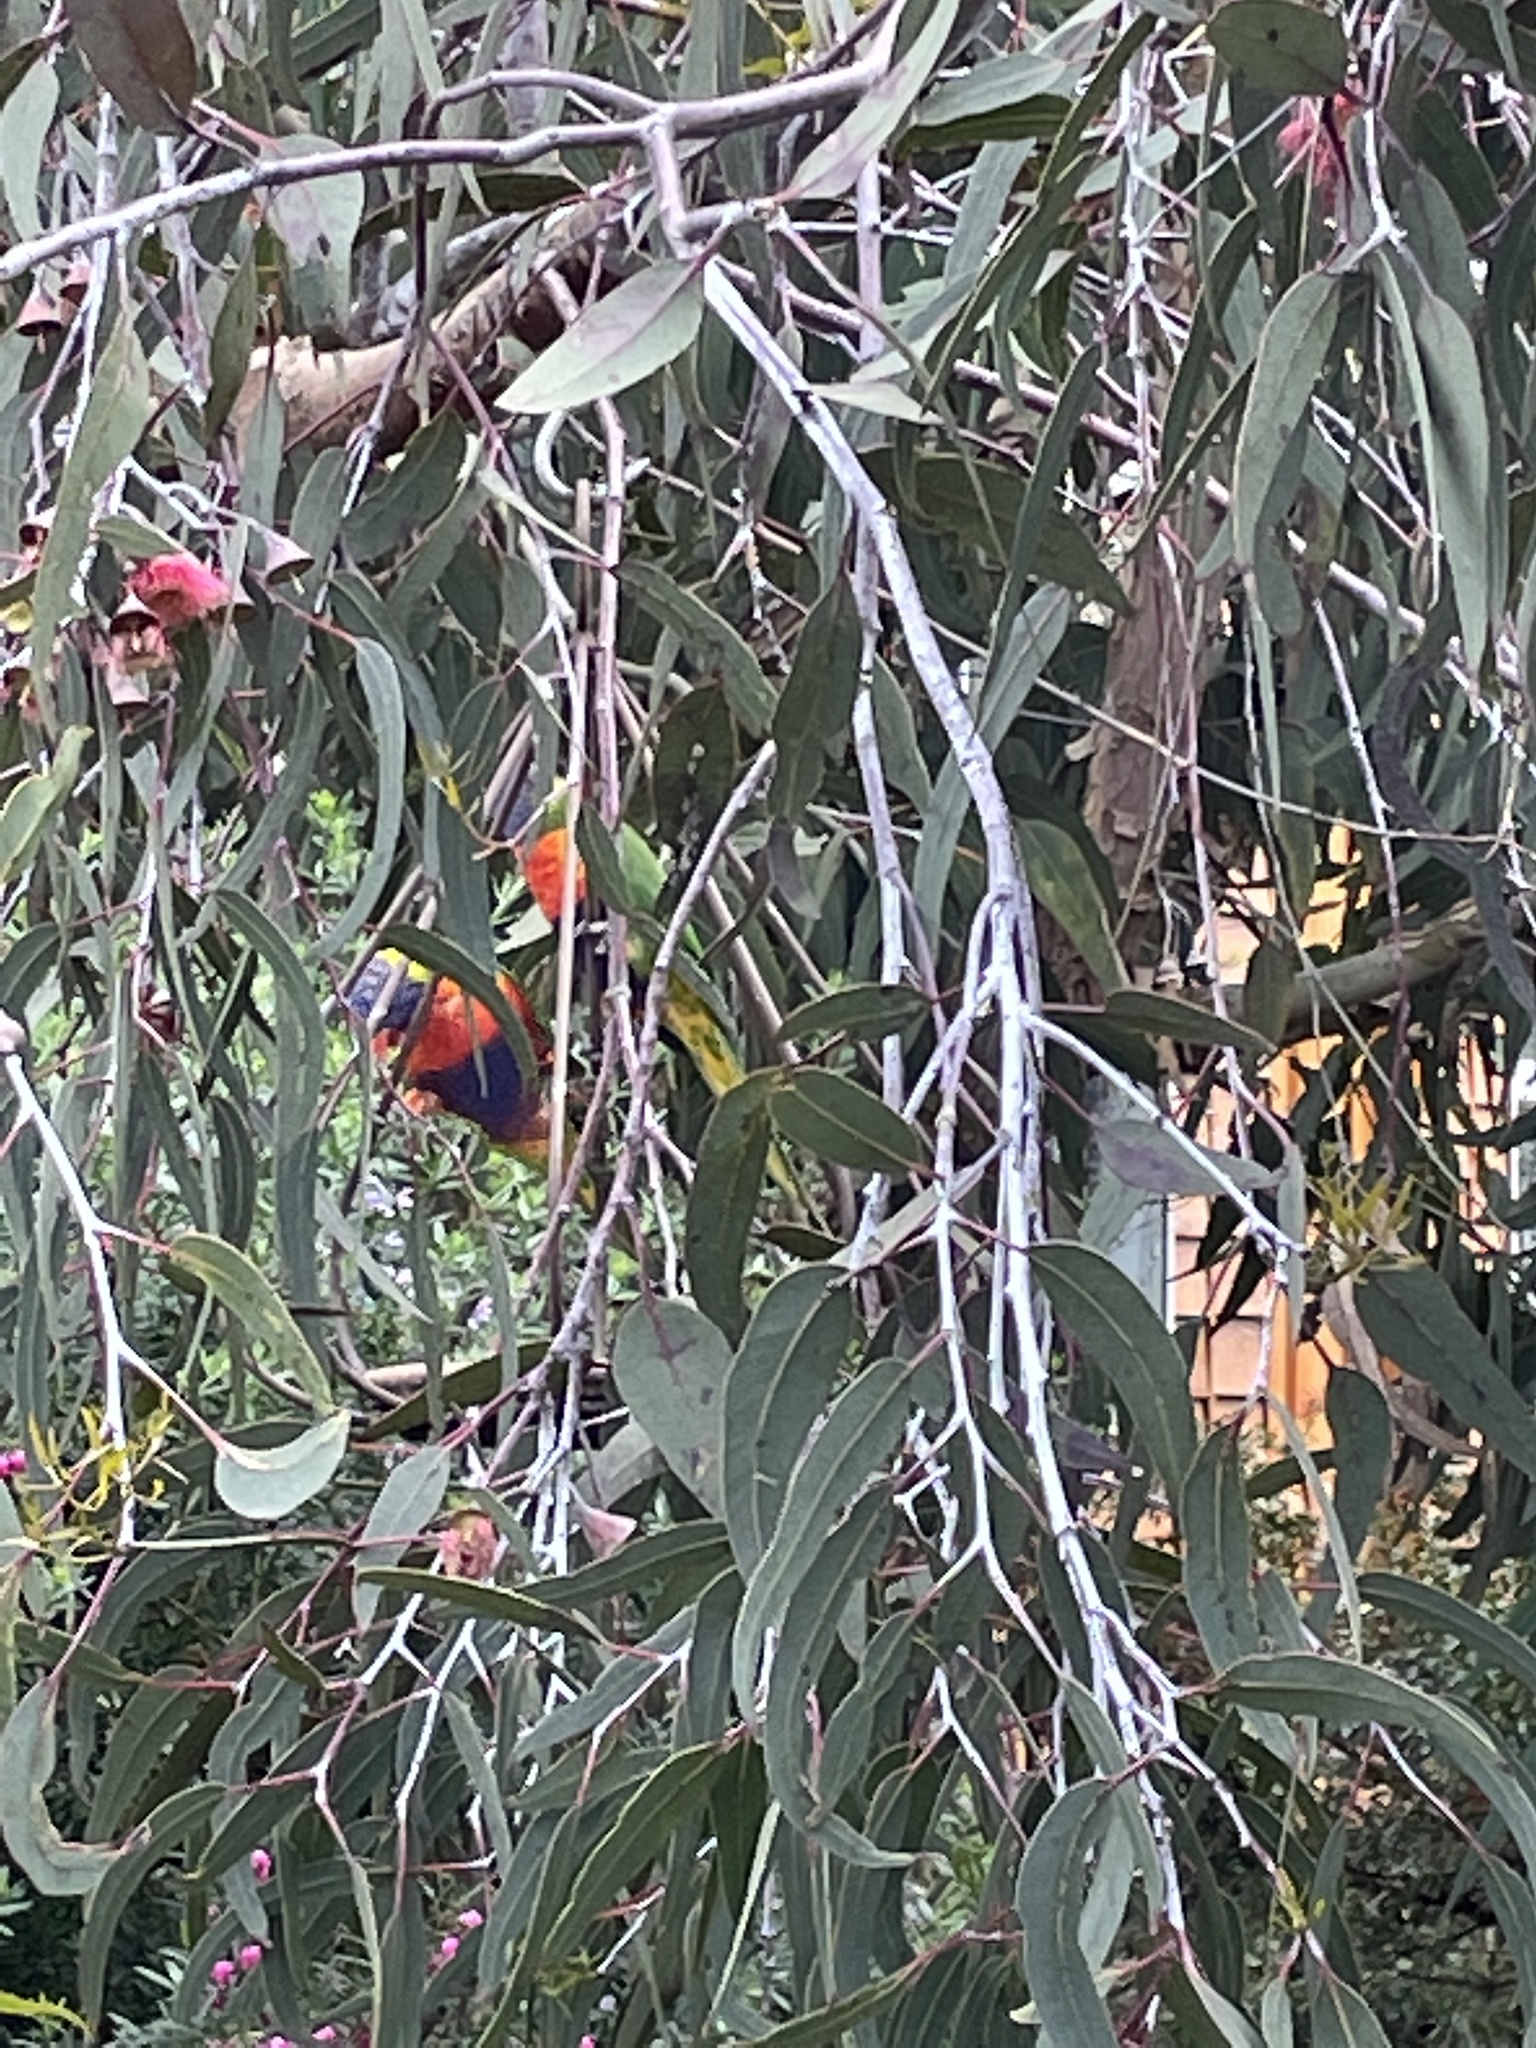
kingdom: Animalia
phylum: Chordata
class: Aves
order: Psittaciformes
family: Psittacidae
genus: Trichoglossus
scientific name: Trichoglossus haematodus
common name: Coconut lorikeet
